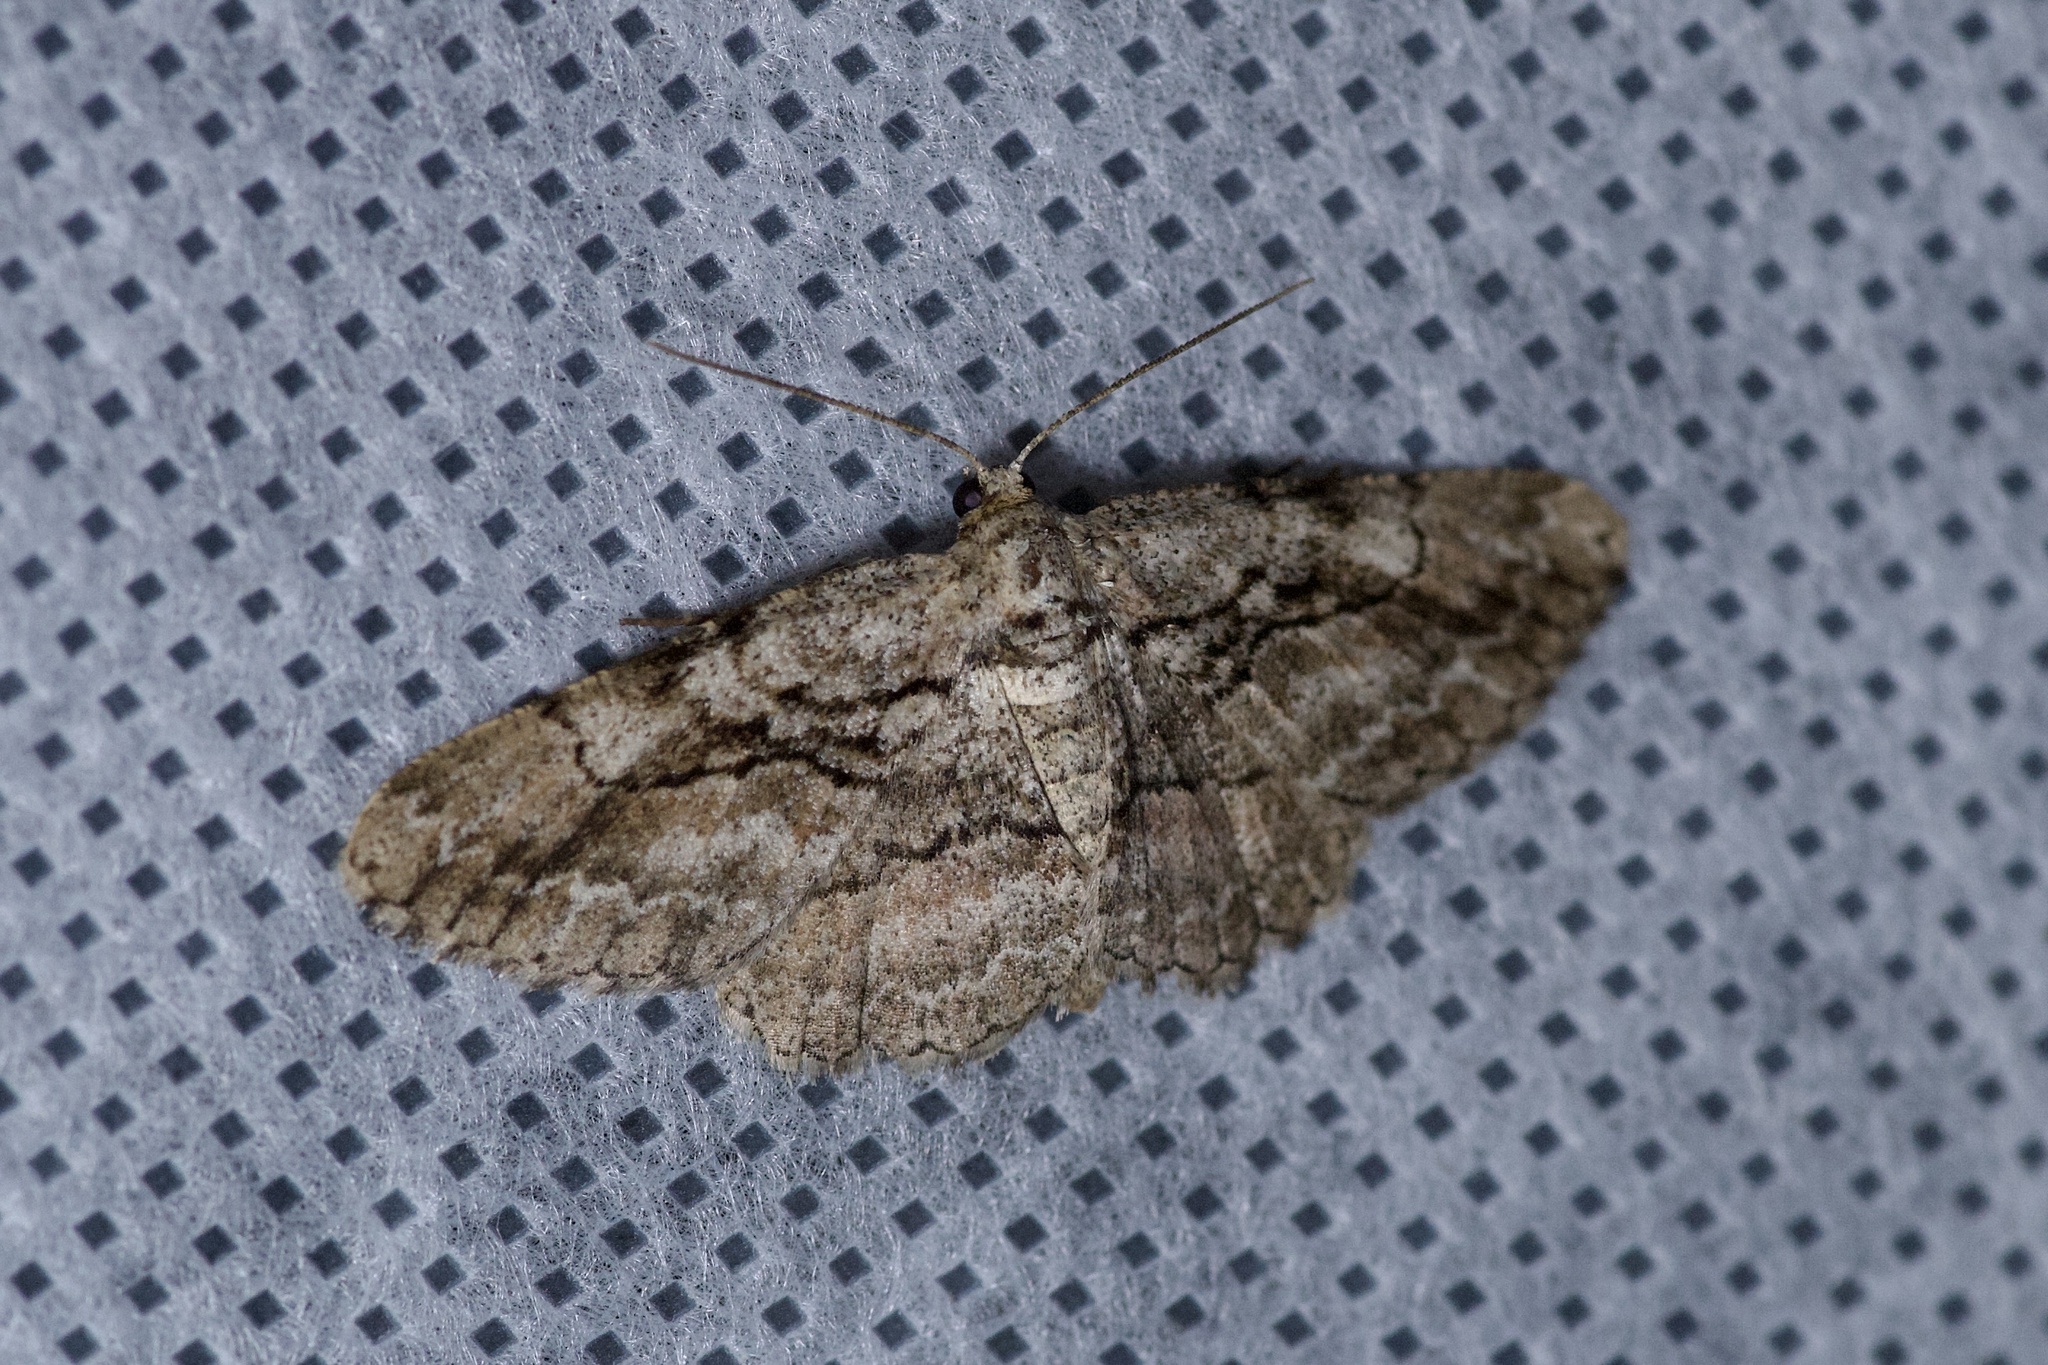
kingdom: Animalia
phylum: Arthropoda
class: Insecta
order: Lepidoptera
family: Geometridae
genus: Anavitrinella
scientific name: Anavitrinella atristrigaria
